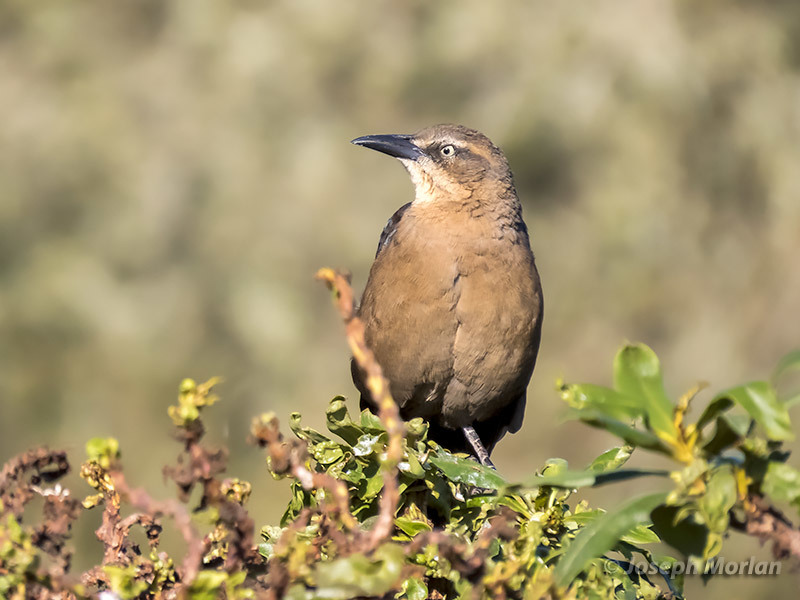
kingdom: Animalia
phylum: Chordata
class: Aves
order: Passeriformes
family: Icteridae
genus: Quiscalus
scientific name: Quiscalus mexicanus
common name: Great-tailed grackle
